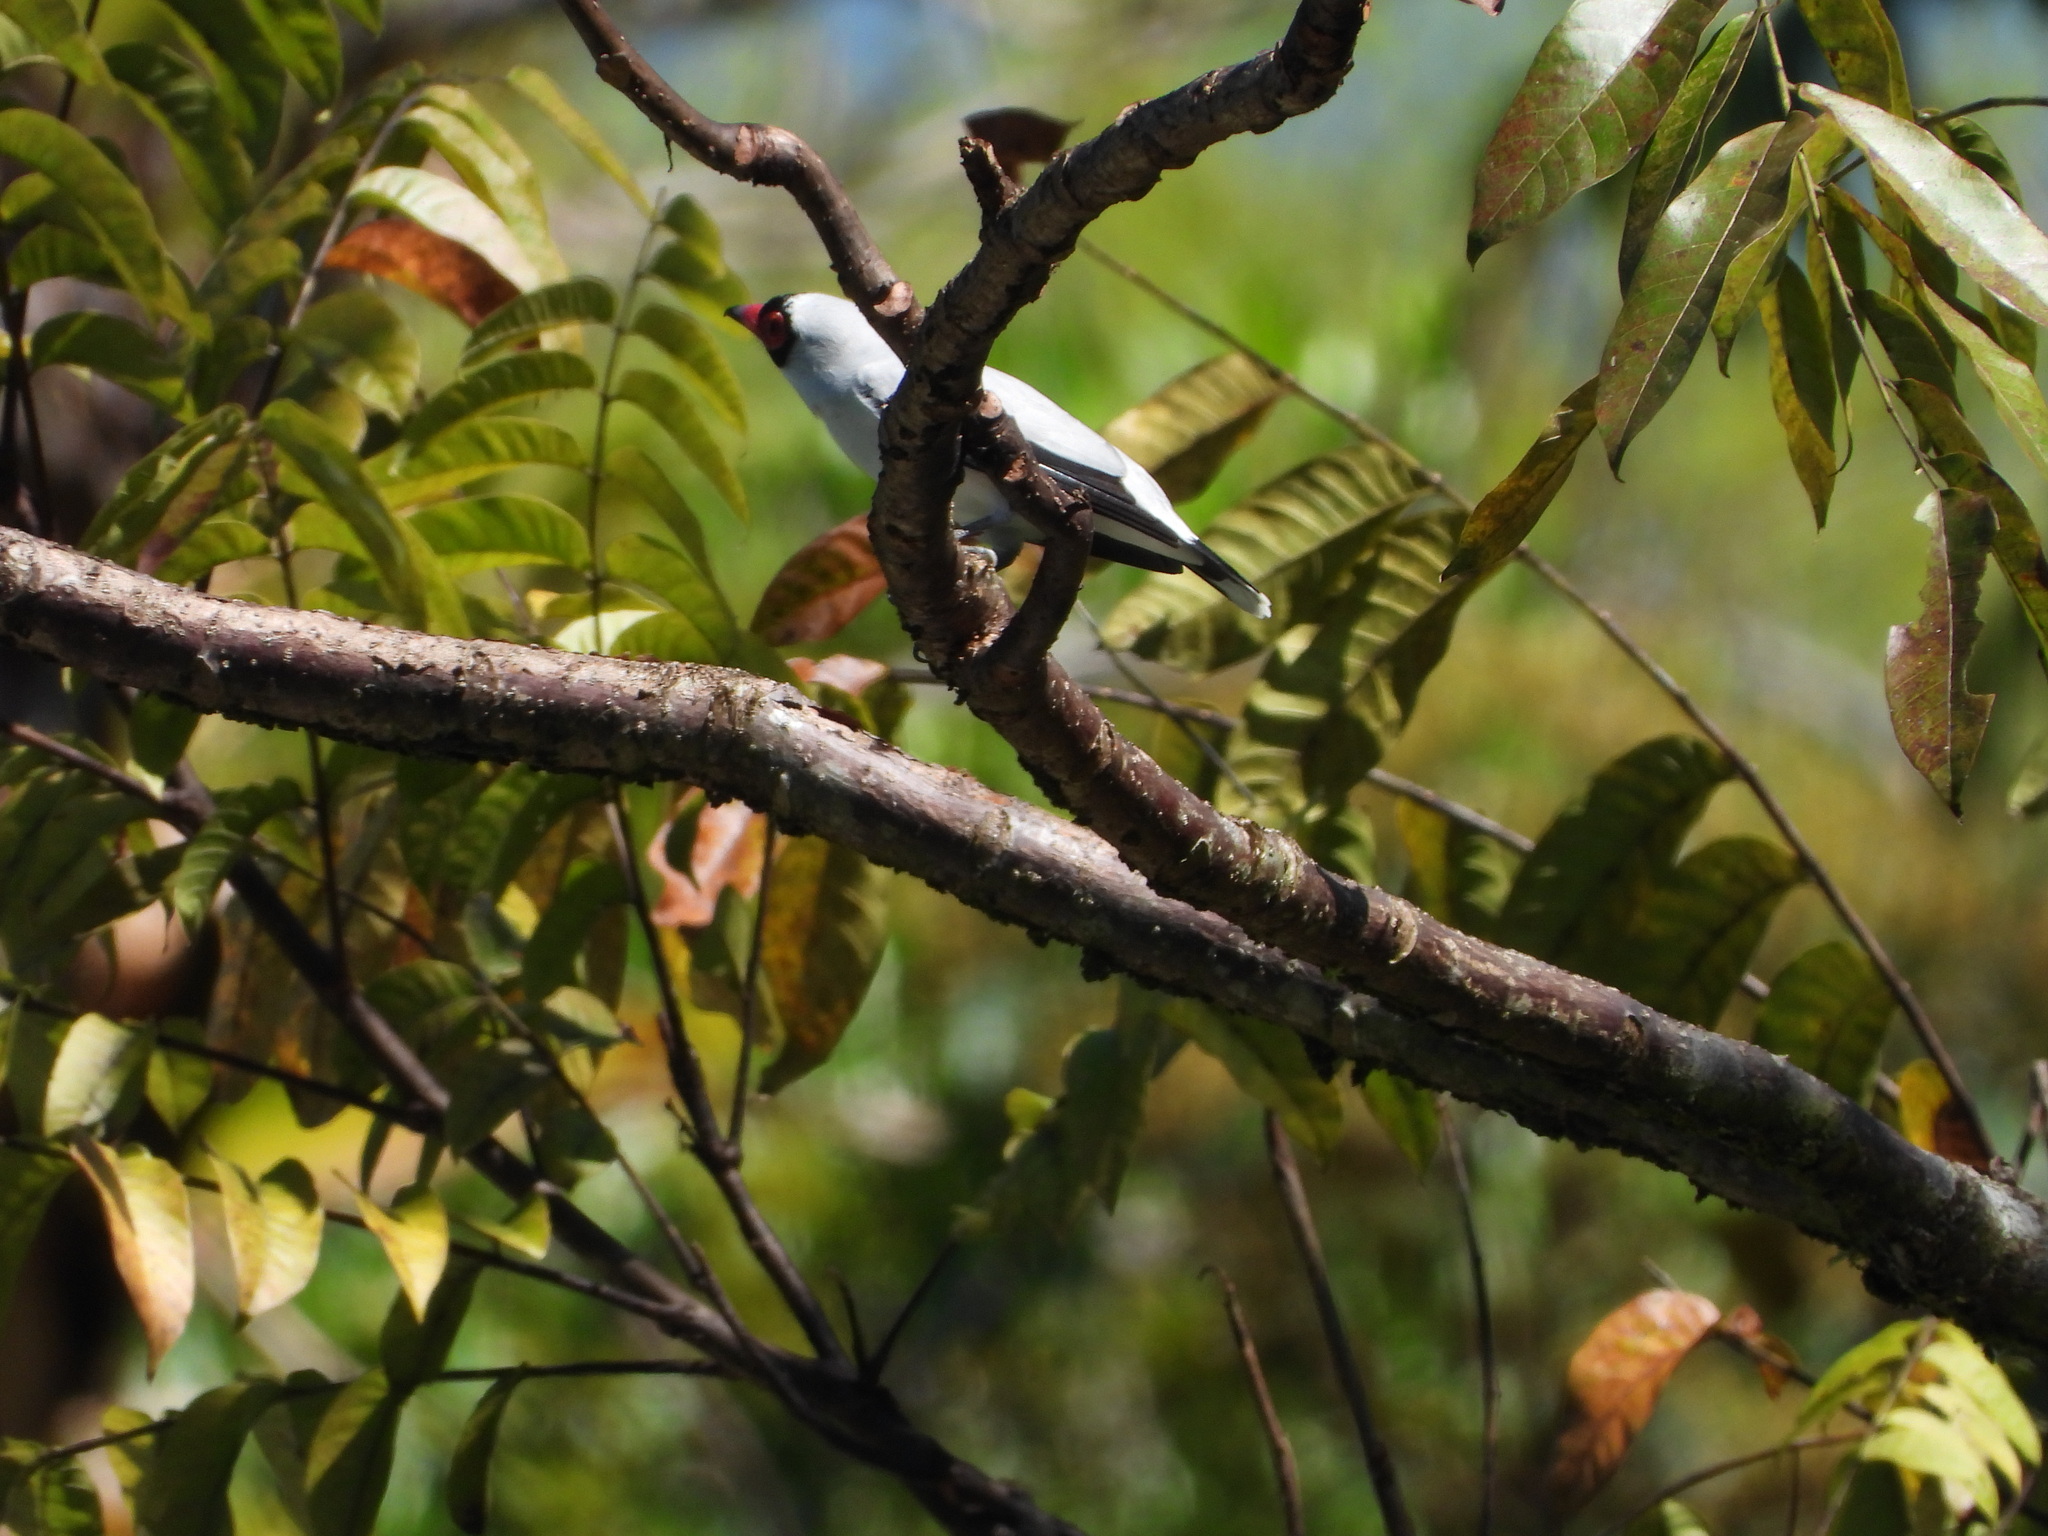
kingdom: Animalia
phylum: Chordata
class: Aves
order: Passeriformes
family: Cotingidae
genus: Tityra
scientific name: Tityra semifasciata
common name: Masked tityra
